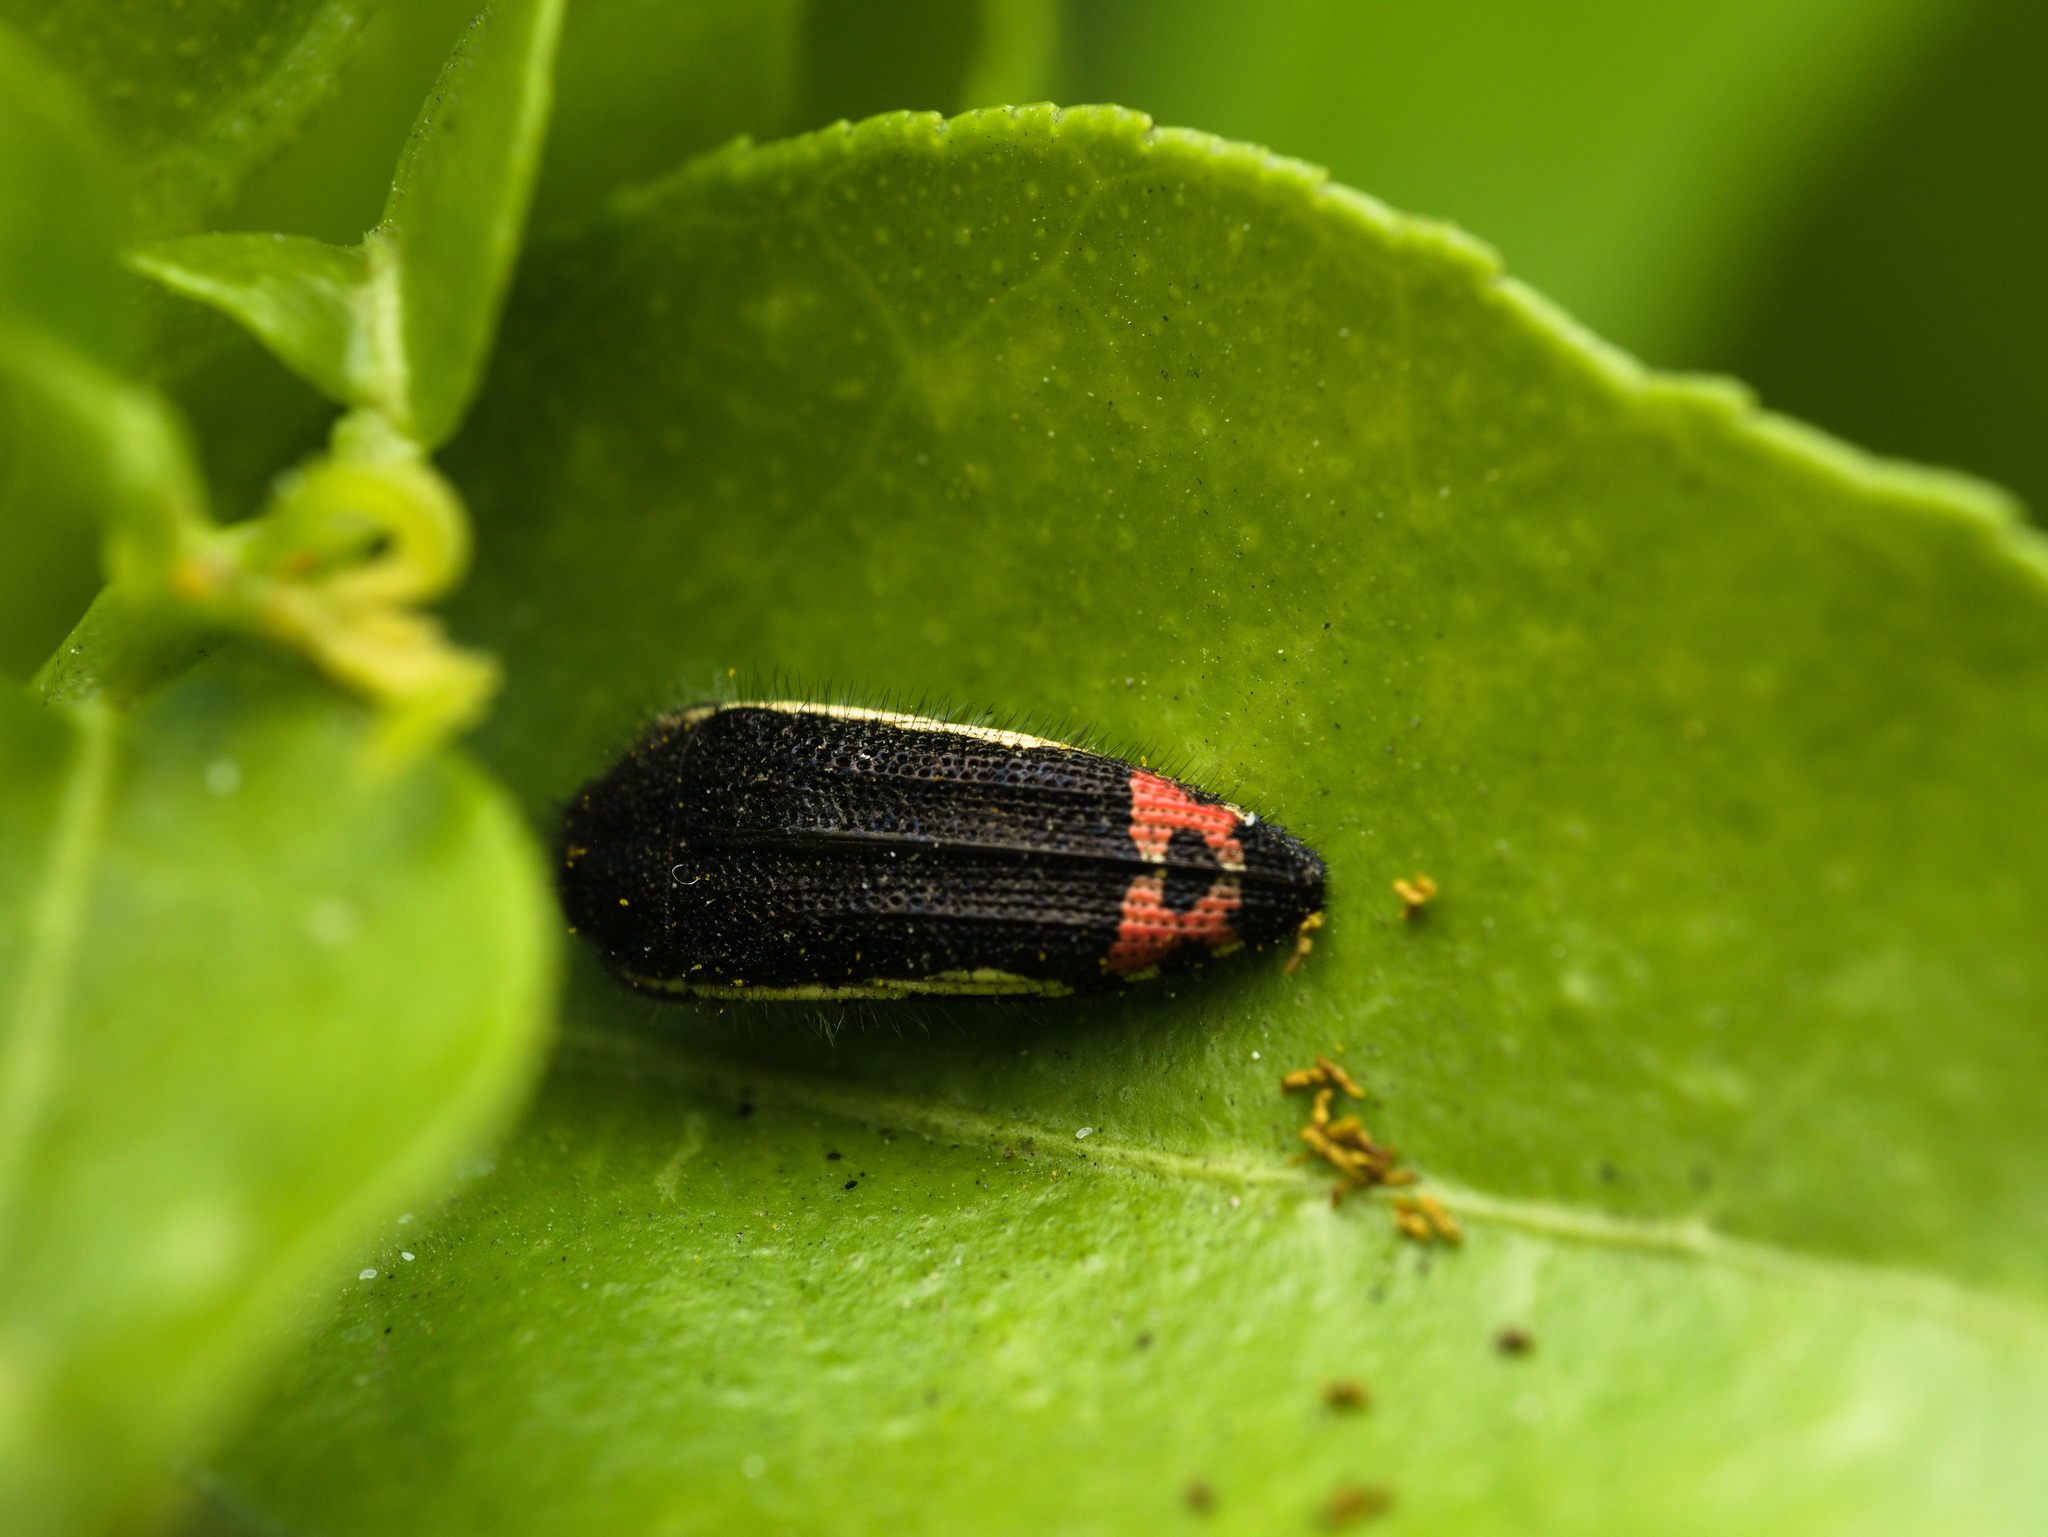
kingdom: Animalia
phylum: Arthropoda
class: Insecta
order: Coleoptera
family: Buprestidae
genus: Acmaeodera
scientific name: Acmaeodera flavomarginata
